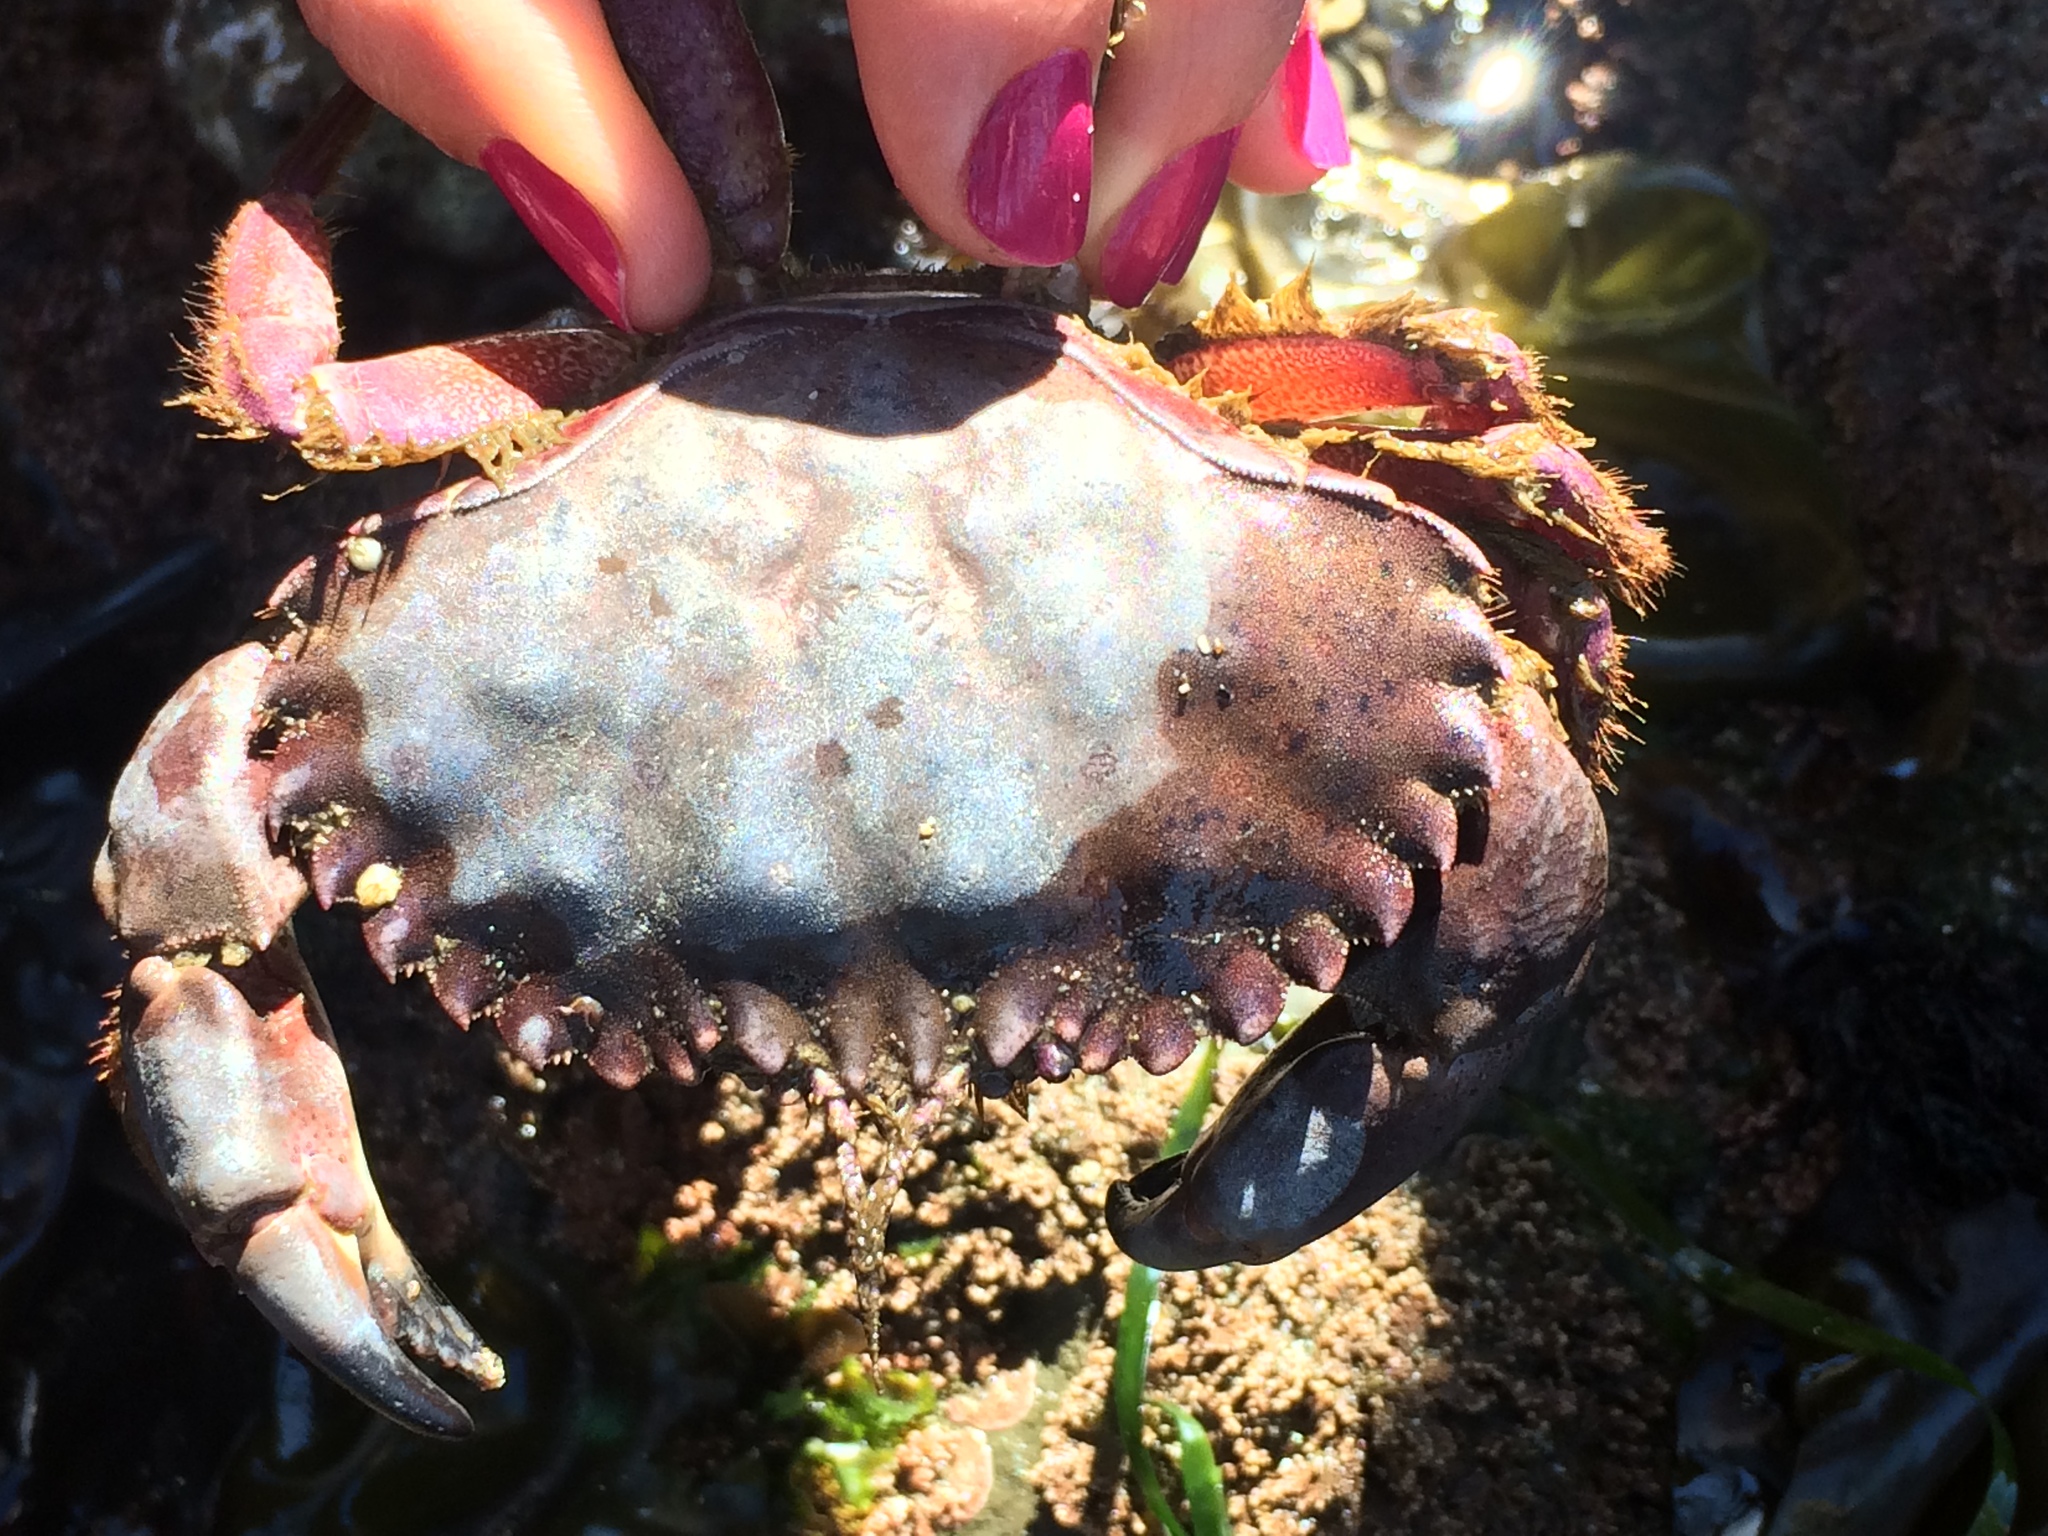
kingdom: Animalia
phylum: Arthropoda
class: Malacostraca
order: Decapoda
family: Cancridae
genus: Romaleon
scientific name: Romaleon antennarium
